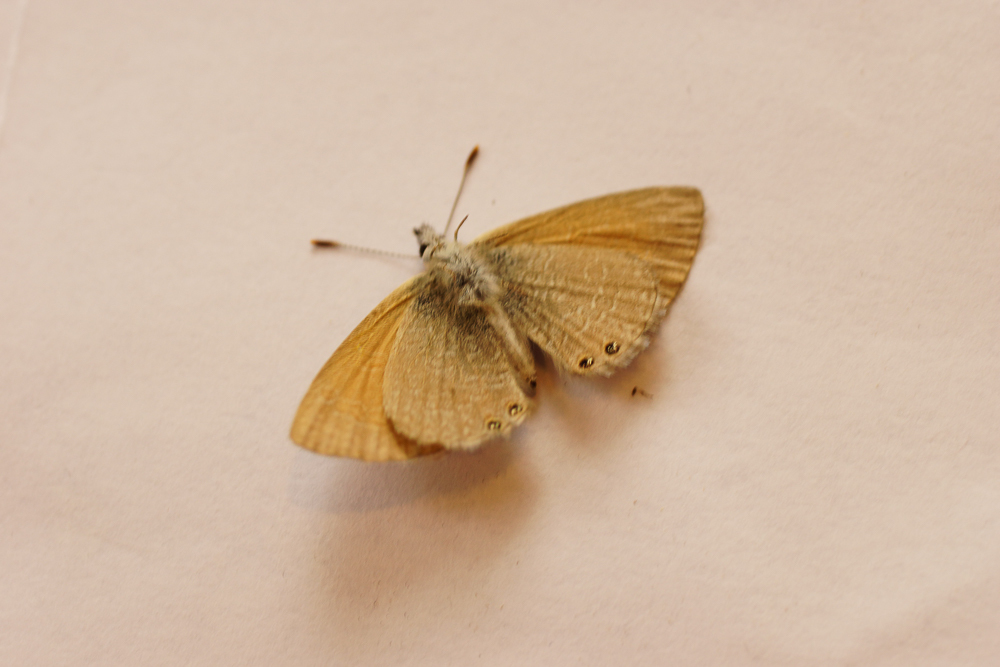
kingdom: Animalia
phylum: Arthropoda
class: Insecta
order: Lepidoptera
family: Lycaenidae
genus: Nacaduba
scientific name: Nacaduba biocellata
